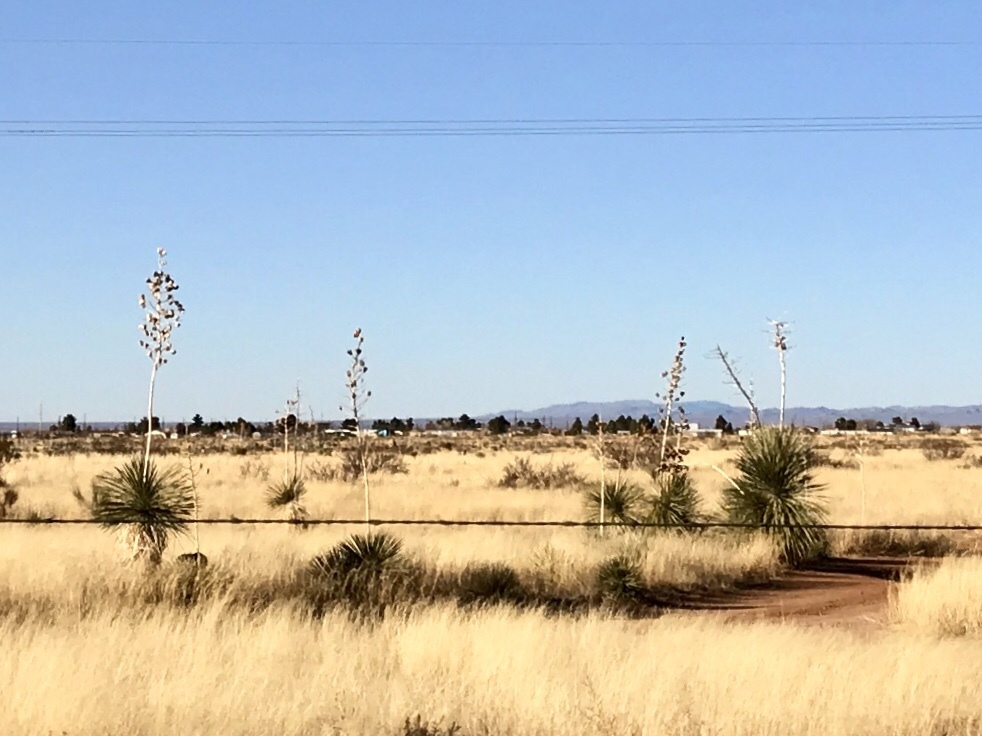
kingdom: Plantae
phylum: Tracheophyta
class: Liliopsida
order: Asparagales
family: Asparagaceae
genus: Yucca
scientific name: Yucca elata
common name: Palmella
